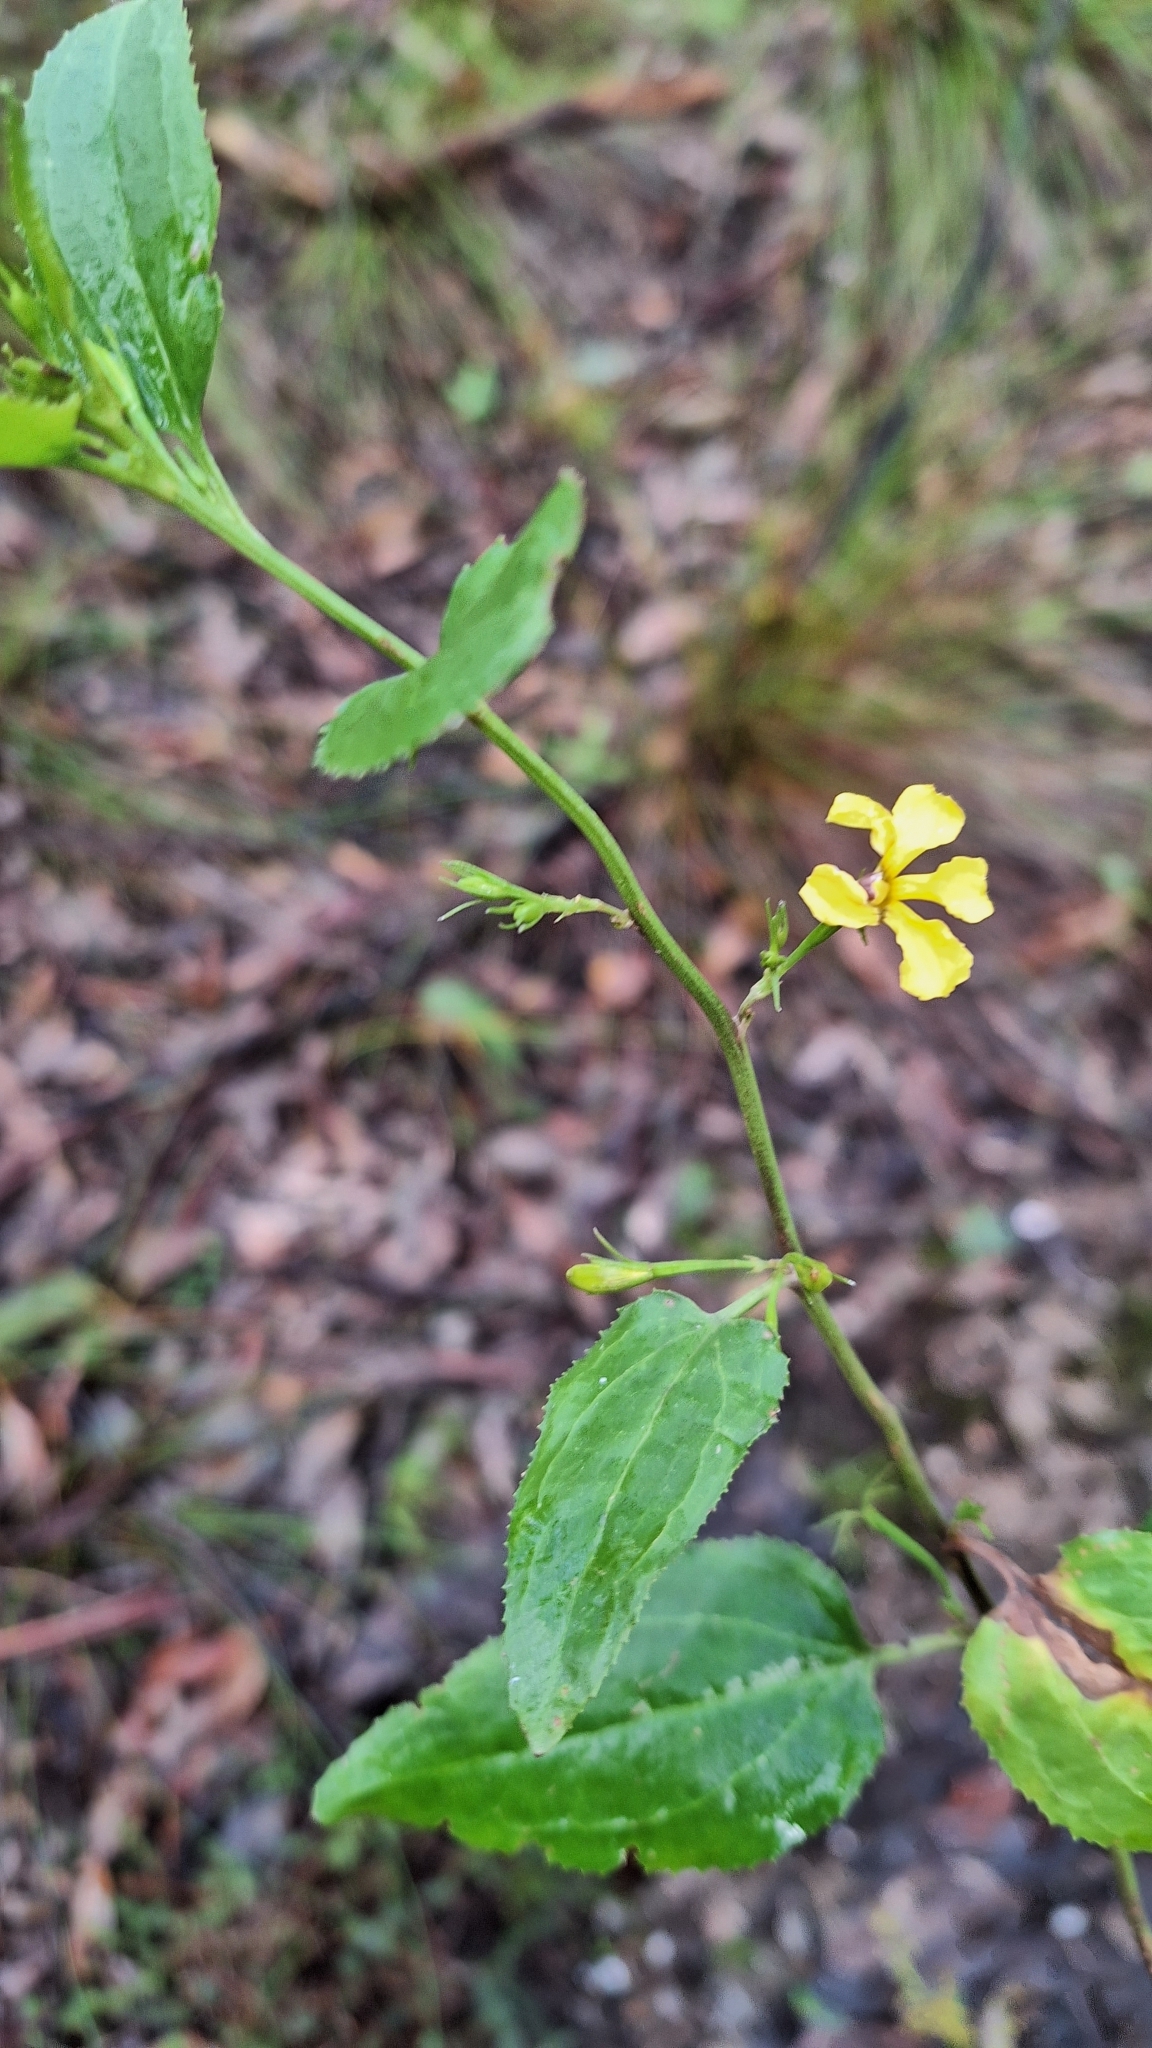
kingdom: Plantae
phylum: Tracheophyta
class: Magnoliopsida
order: Asterales
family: Goodeniaceae
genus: Goodenia
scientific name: Goodenia ovata
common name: Hop goodenia
